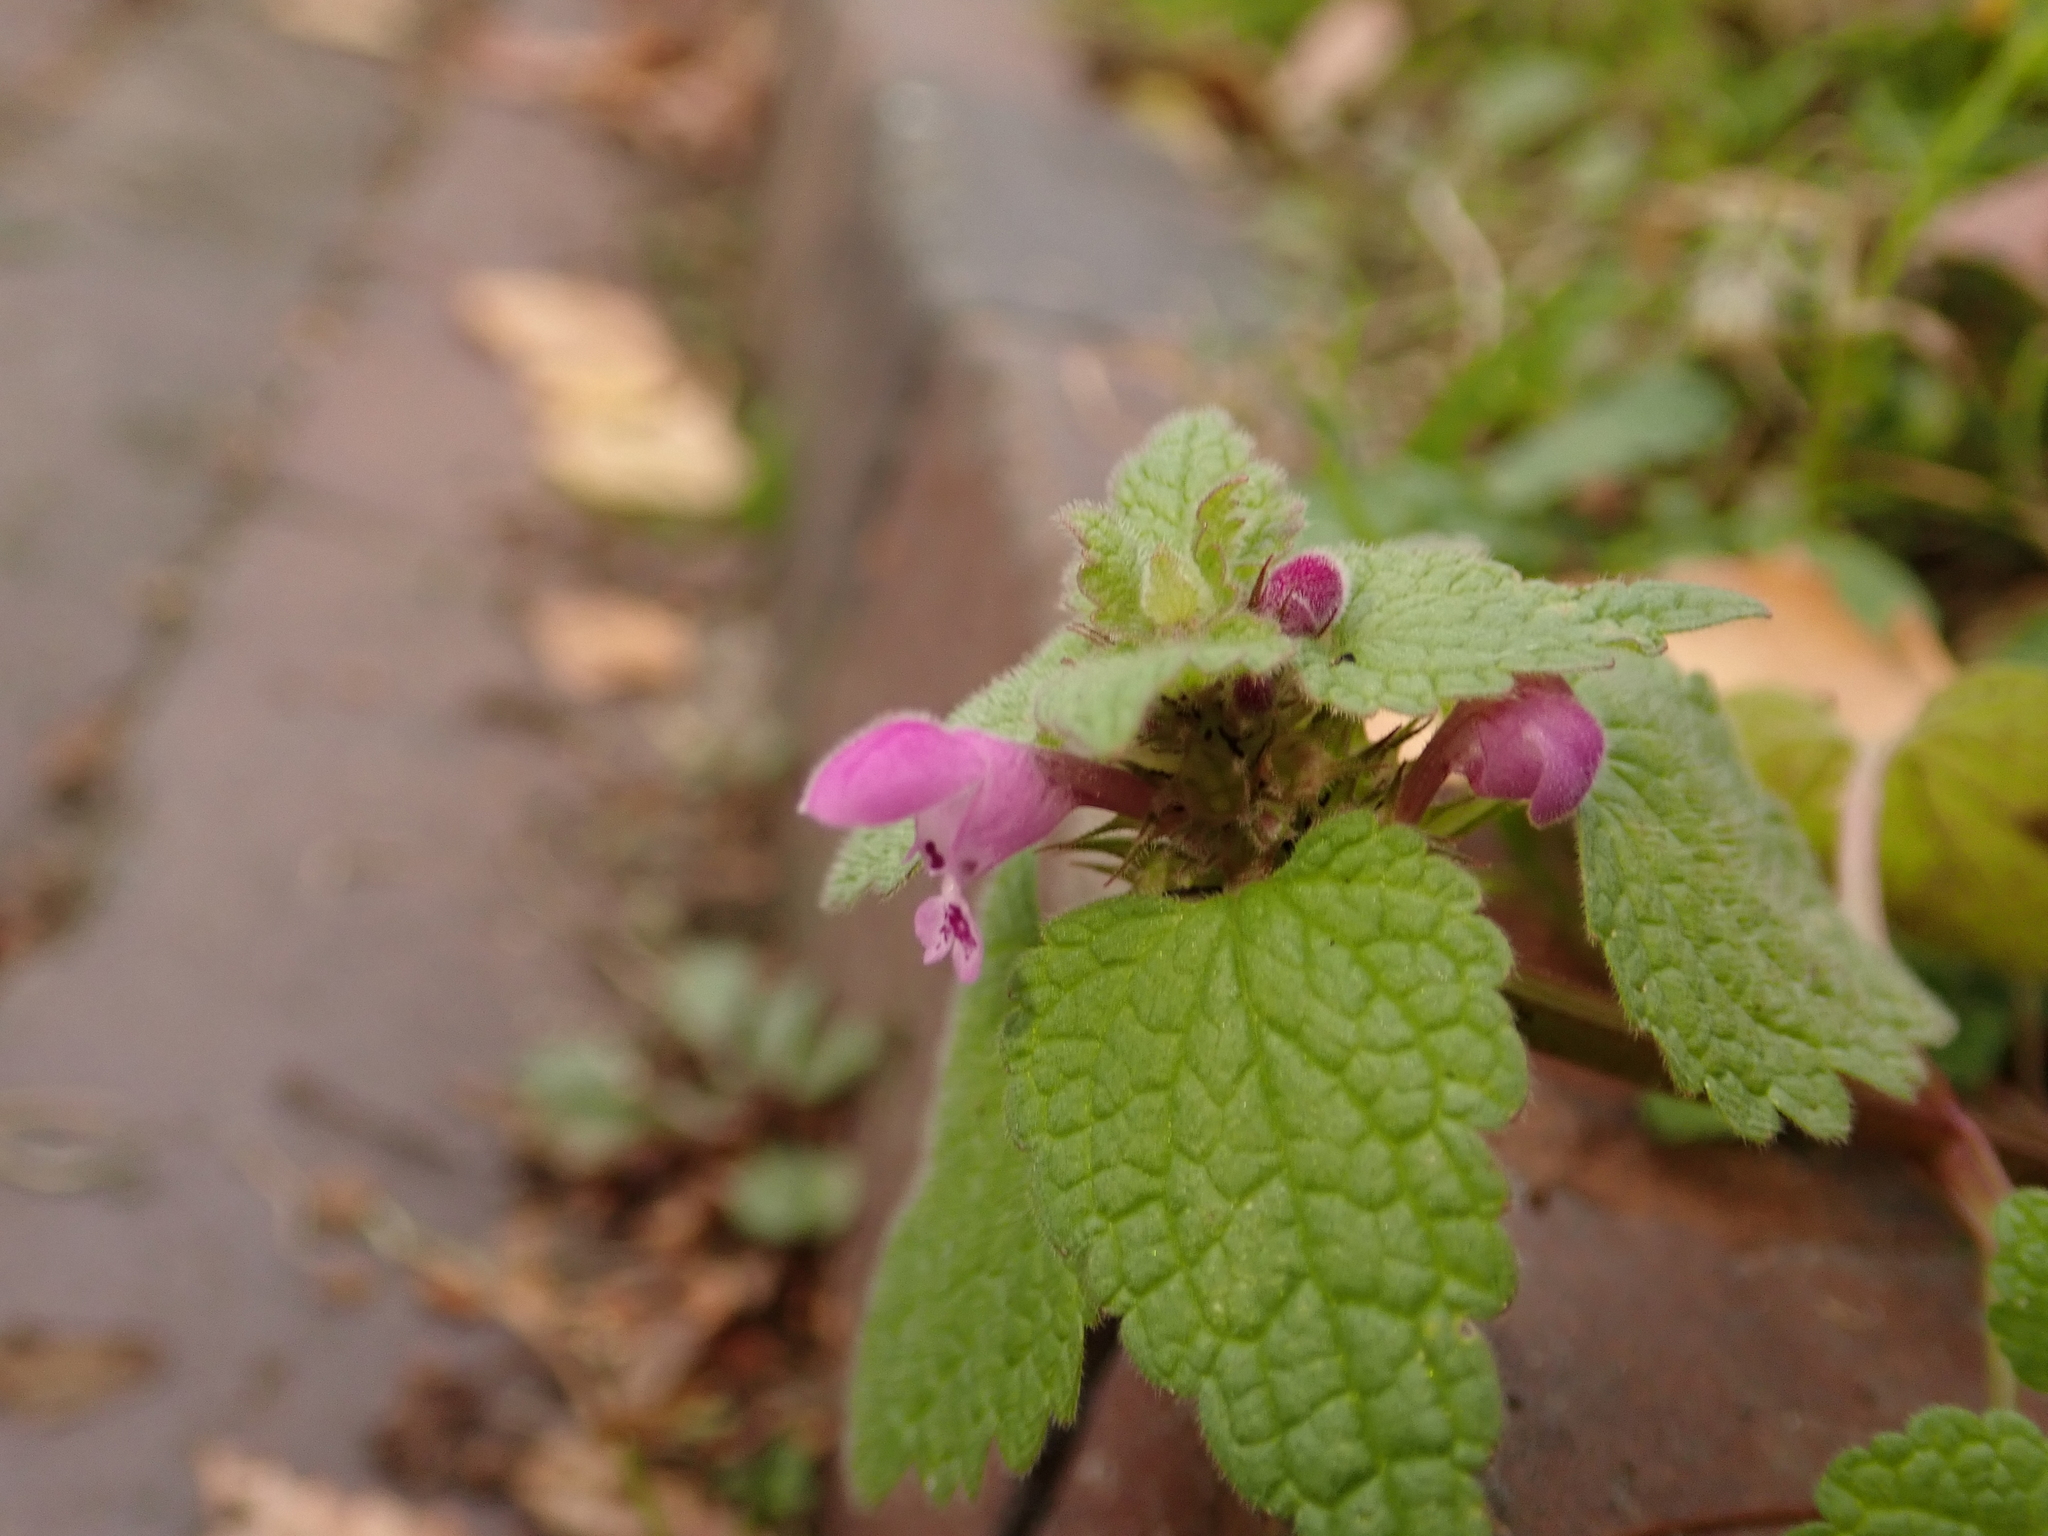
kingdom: Plantae
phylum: Tracheophyta
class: Magnoliopsida
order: Lamiales
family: Lamiaceae
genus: Lamium
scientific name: Lamium purpureum
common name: Red dead-nettle
